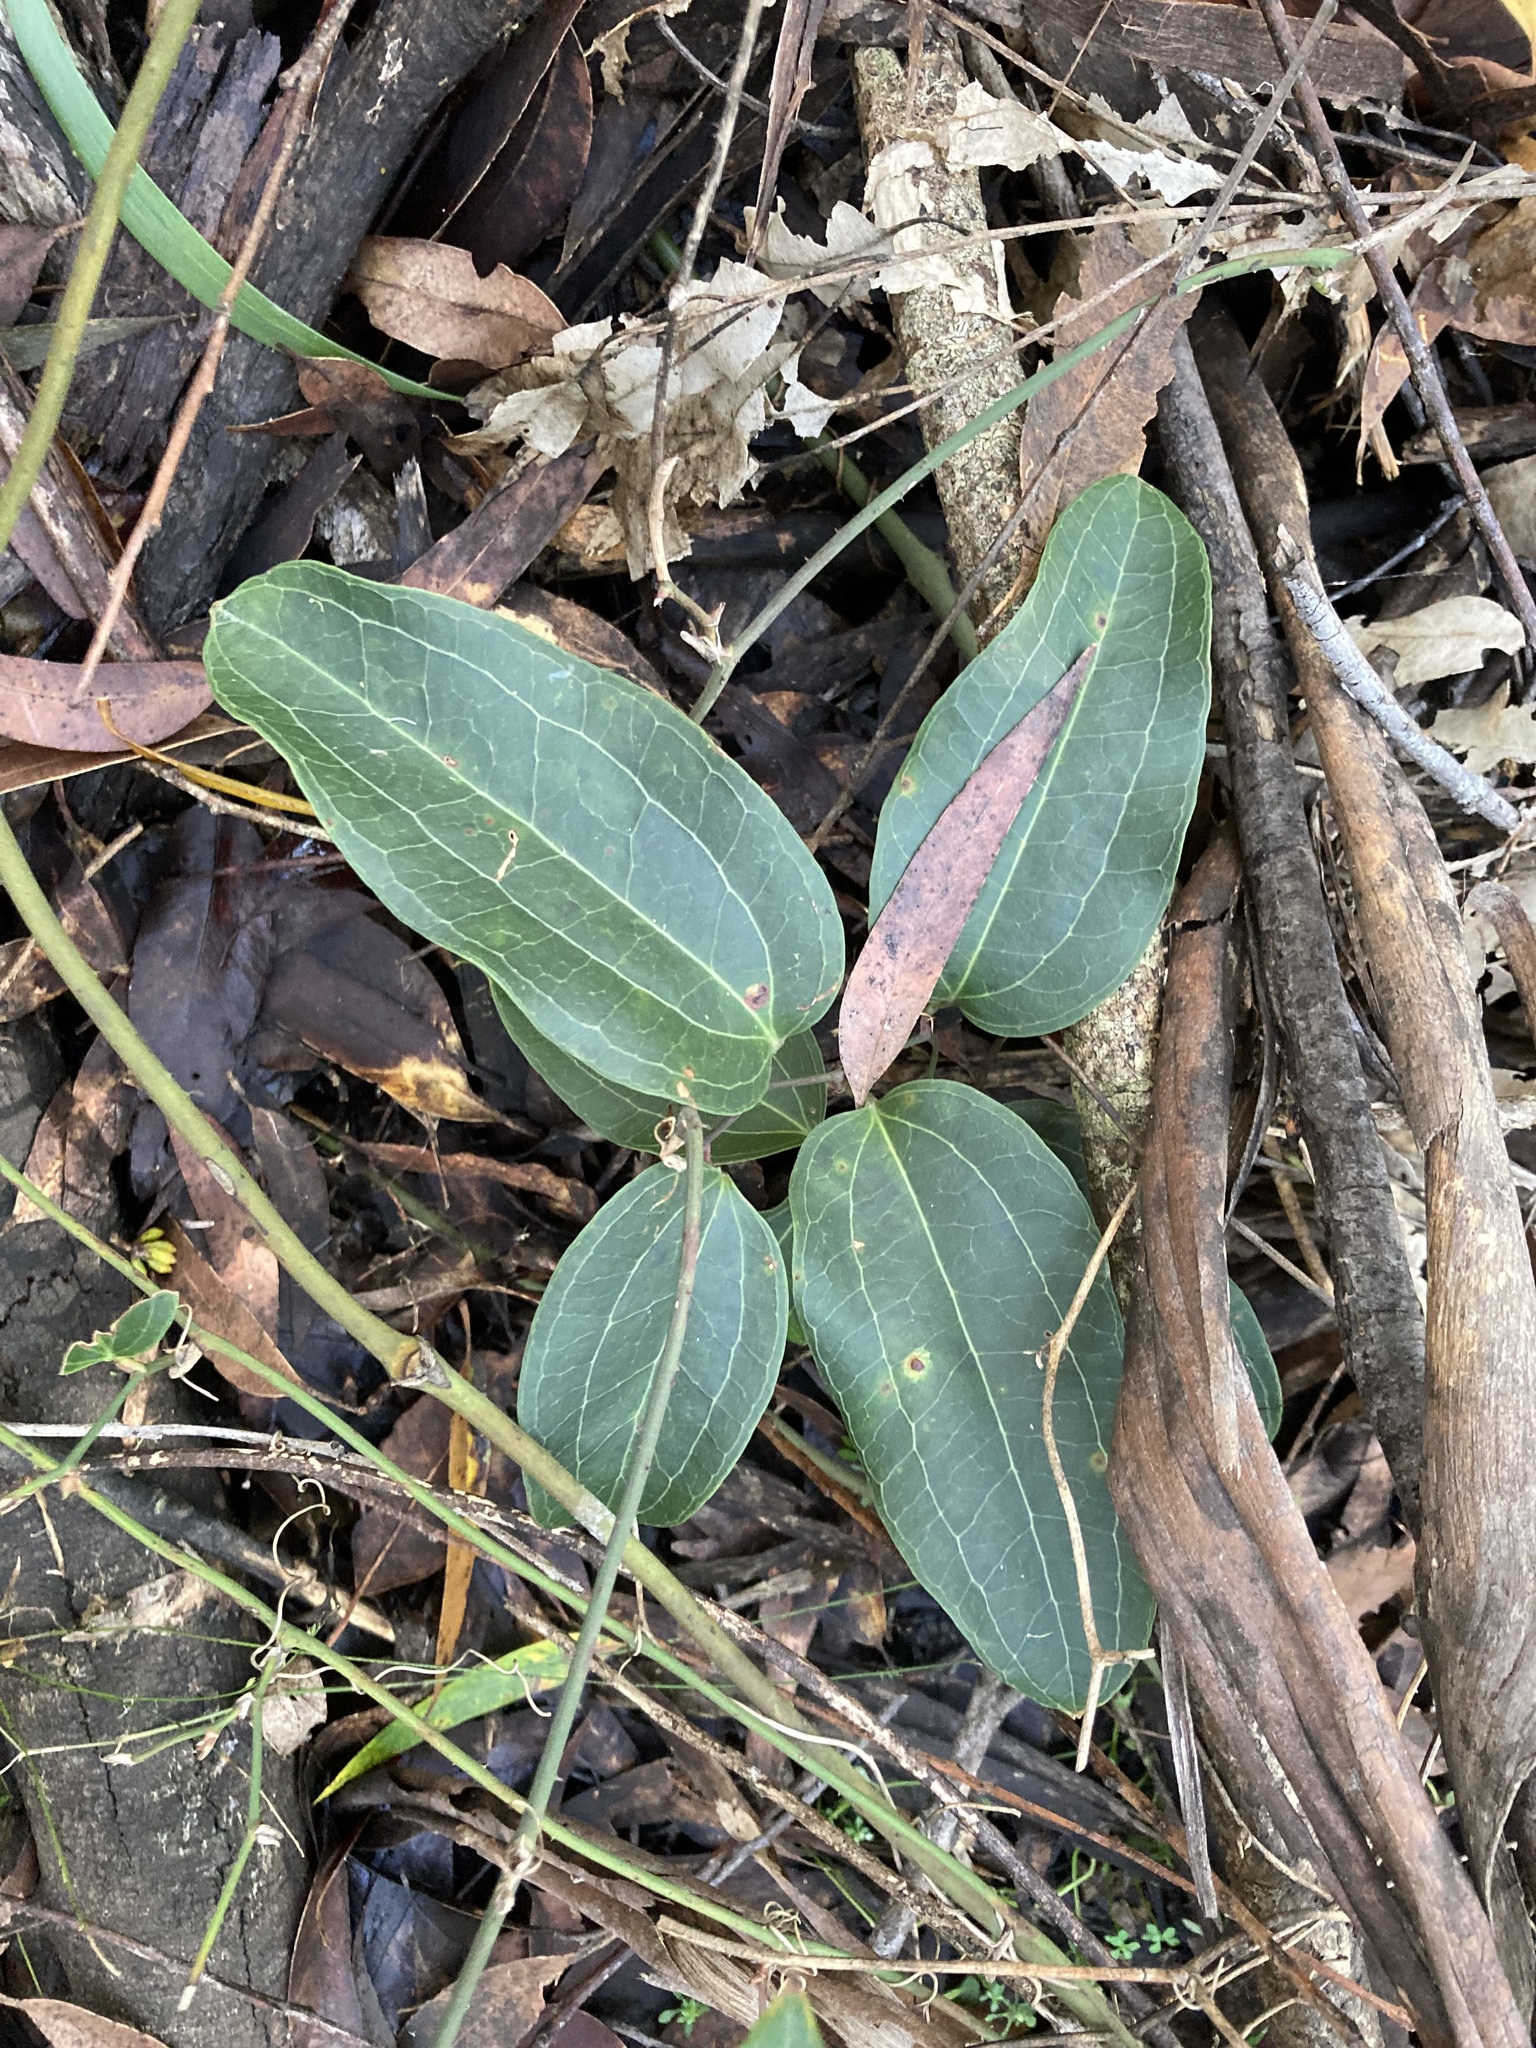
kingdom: Plantae
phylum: Tracheophyta
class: Liliopsida
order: Liliales
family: Smilacaceae
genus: Smilax
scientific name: Smilax australis
